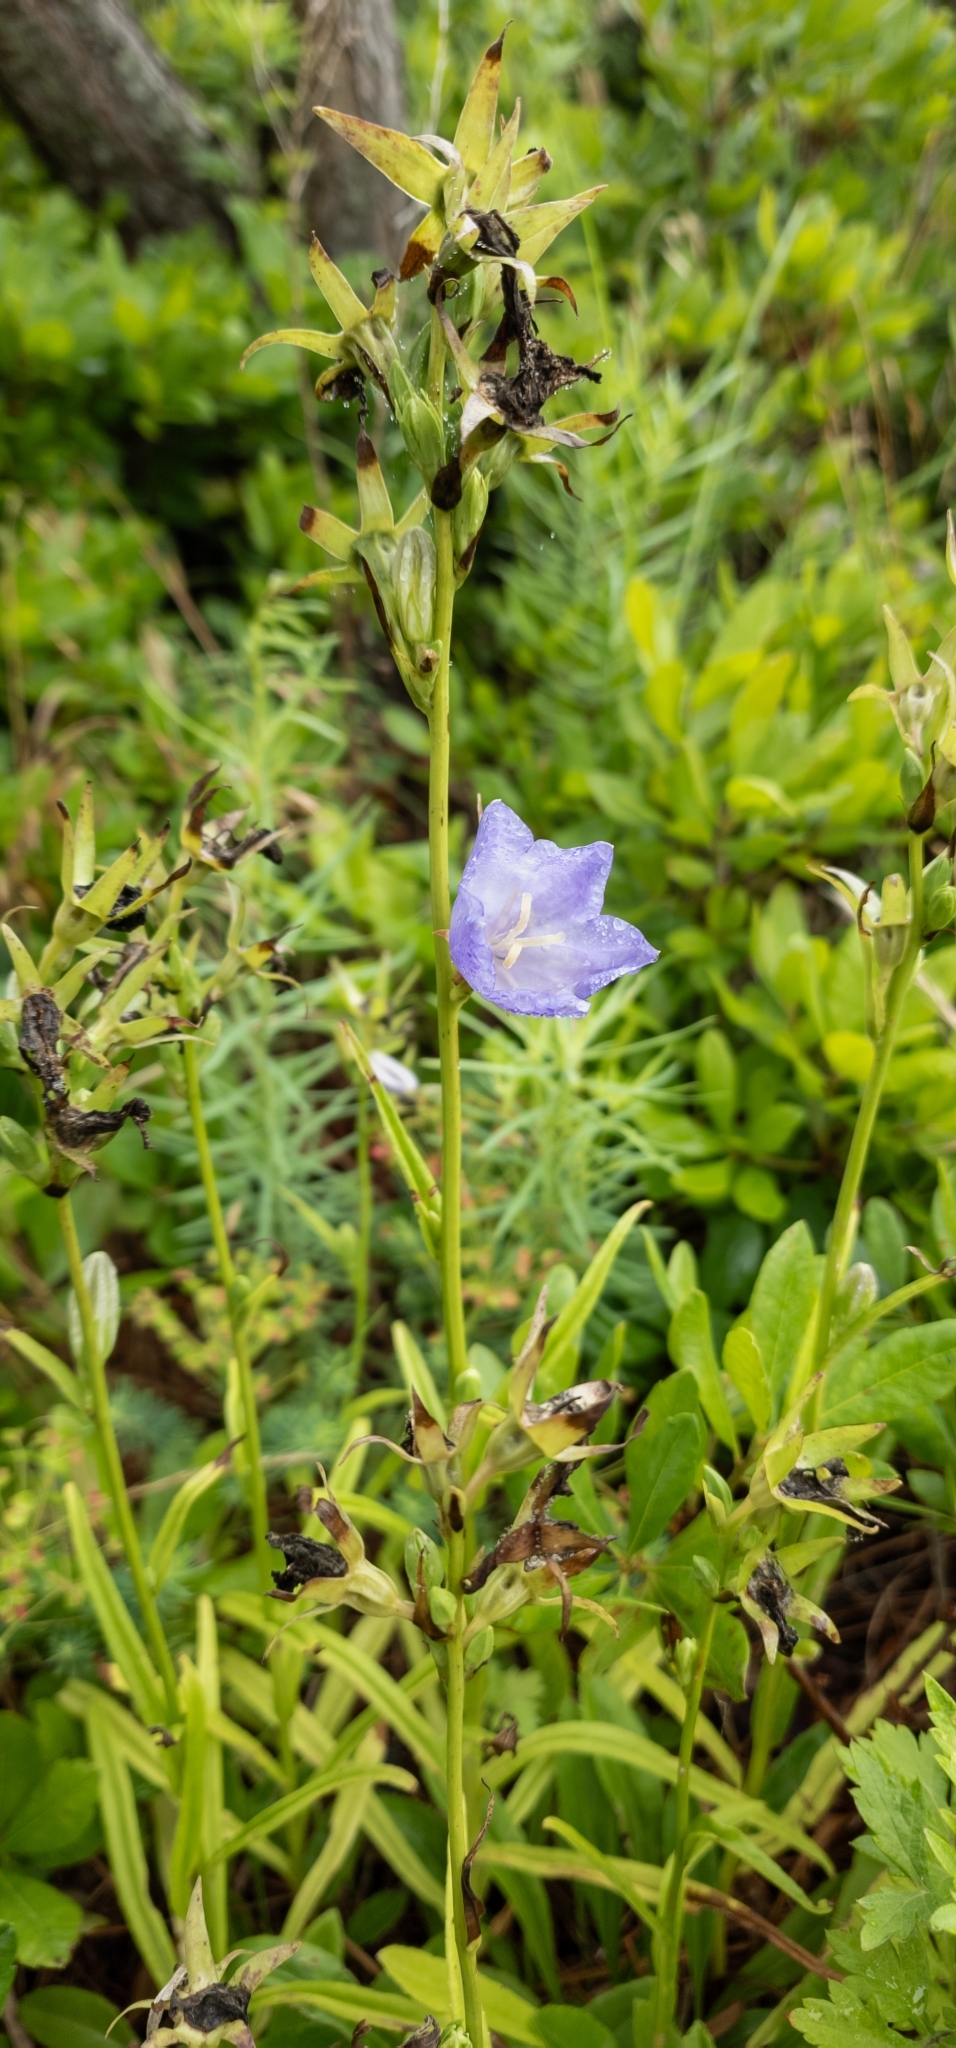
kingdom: Plantae
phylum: Tracheophyta
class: Magnoliopsida
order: Asterales
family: Campanulaceae
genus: Campanula
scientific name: Campanula persicifolia
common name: Peach-leaved bellflower
